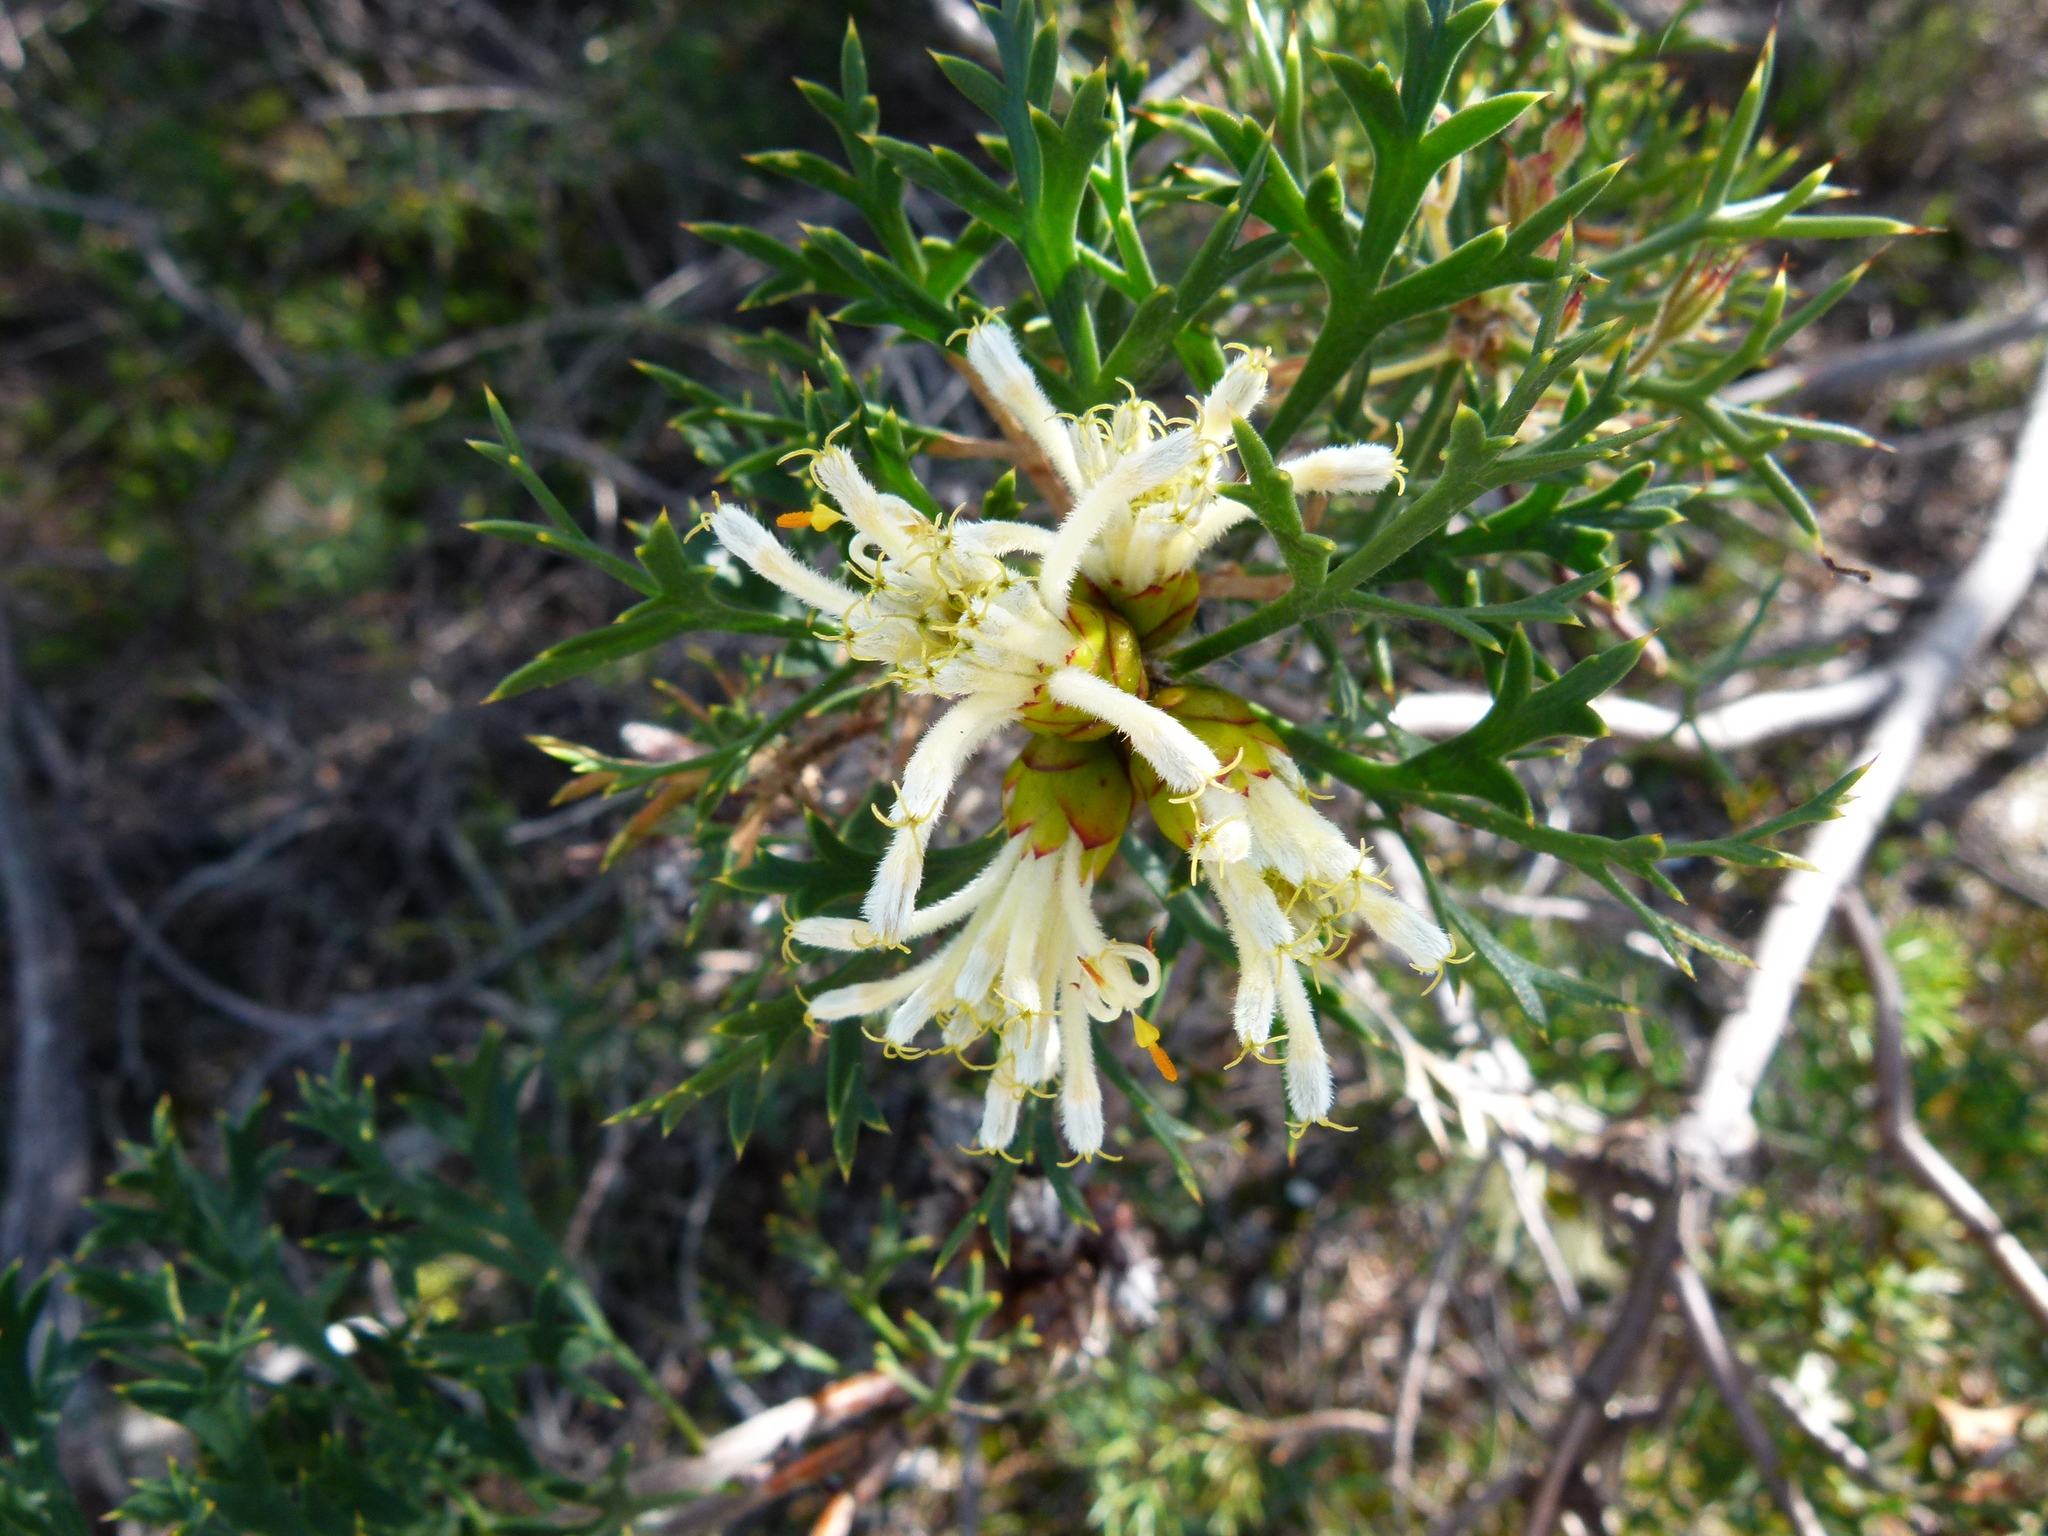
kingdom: Plantae
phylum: Tracheophyta
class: Magnoliopsida
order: Proteales
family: Proteaceae
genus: Petrophile
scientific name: Petrophile striata
